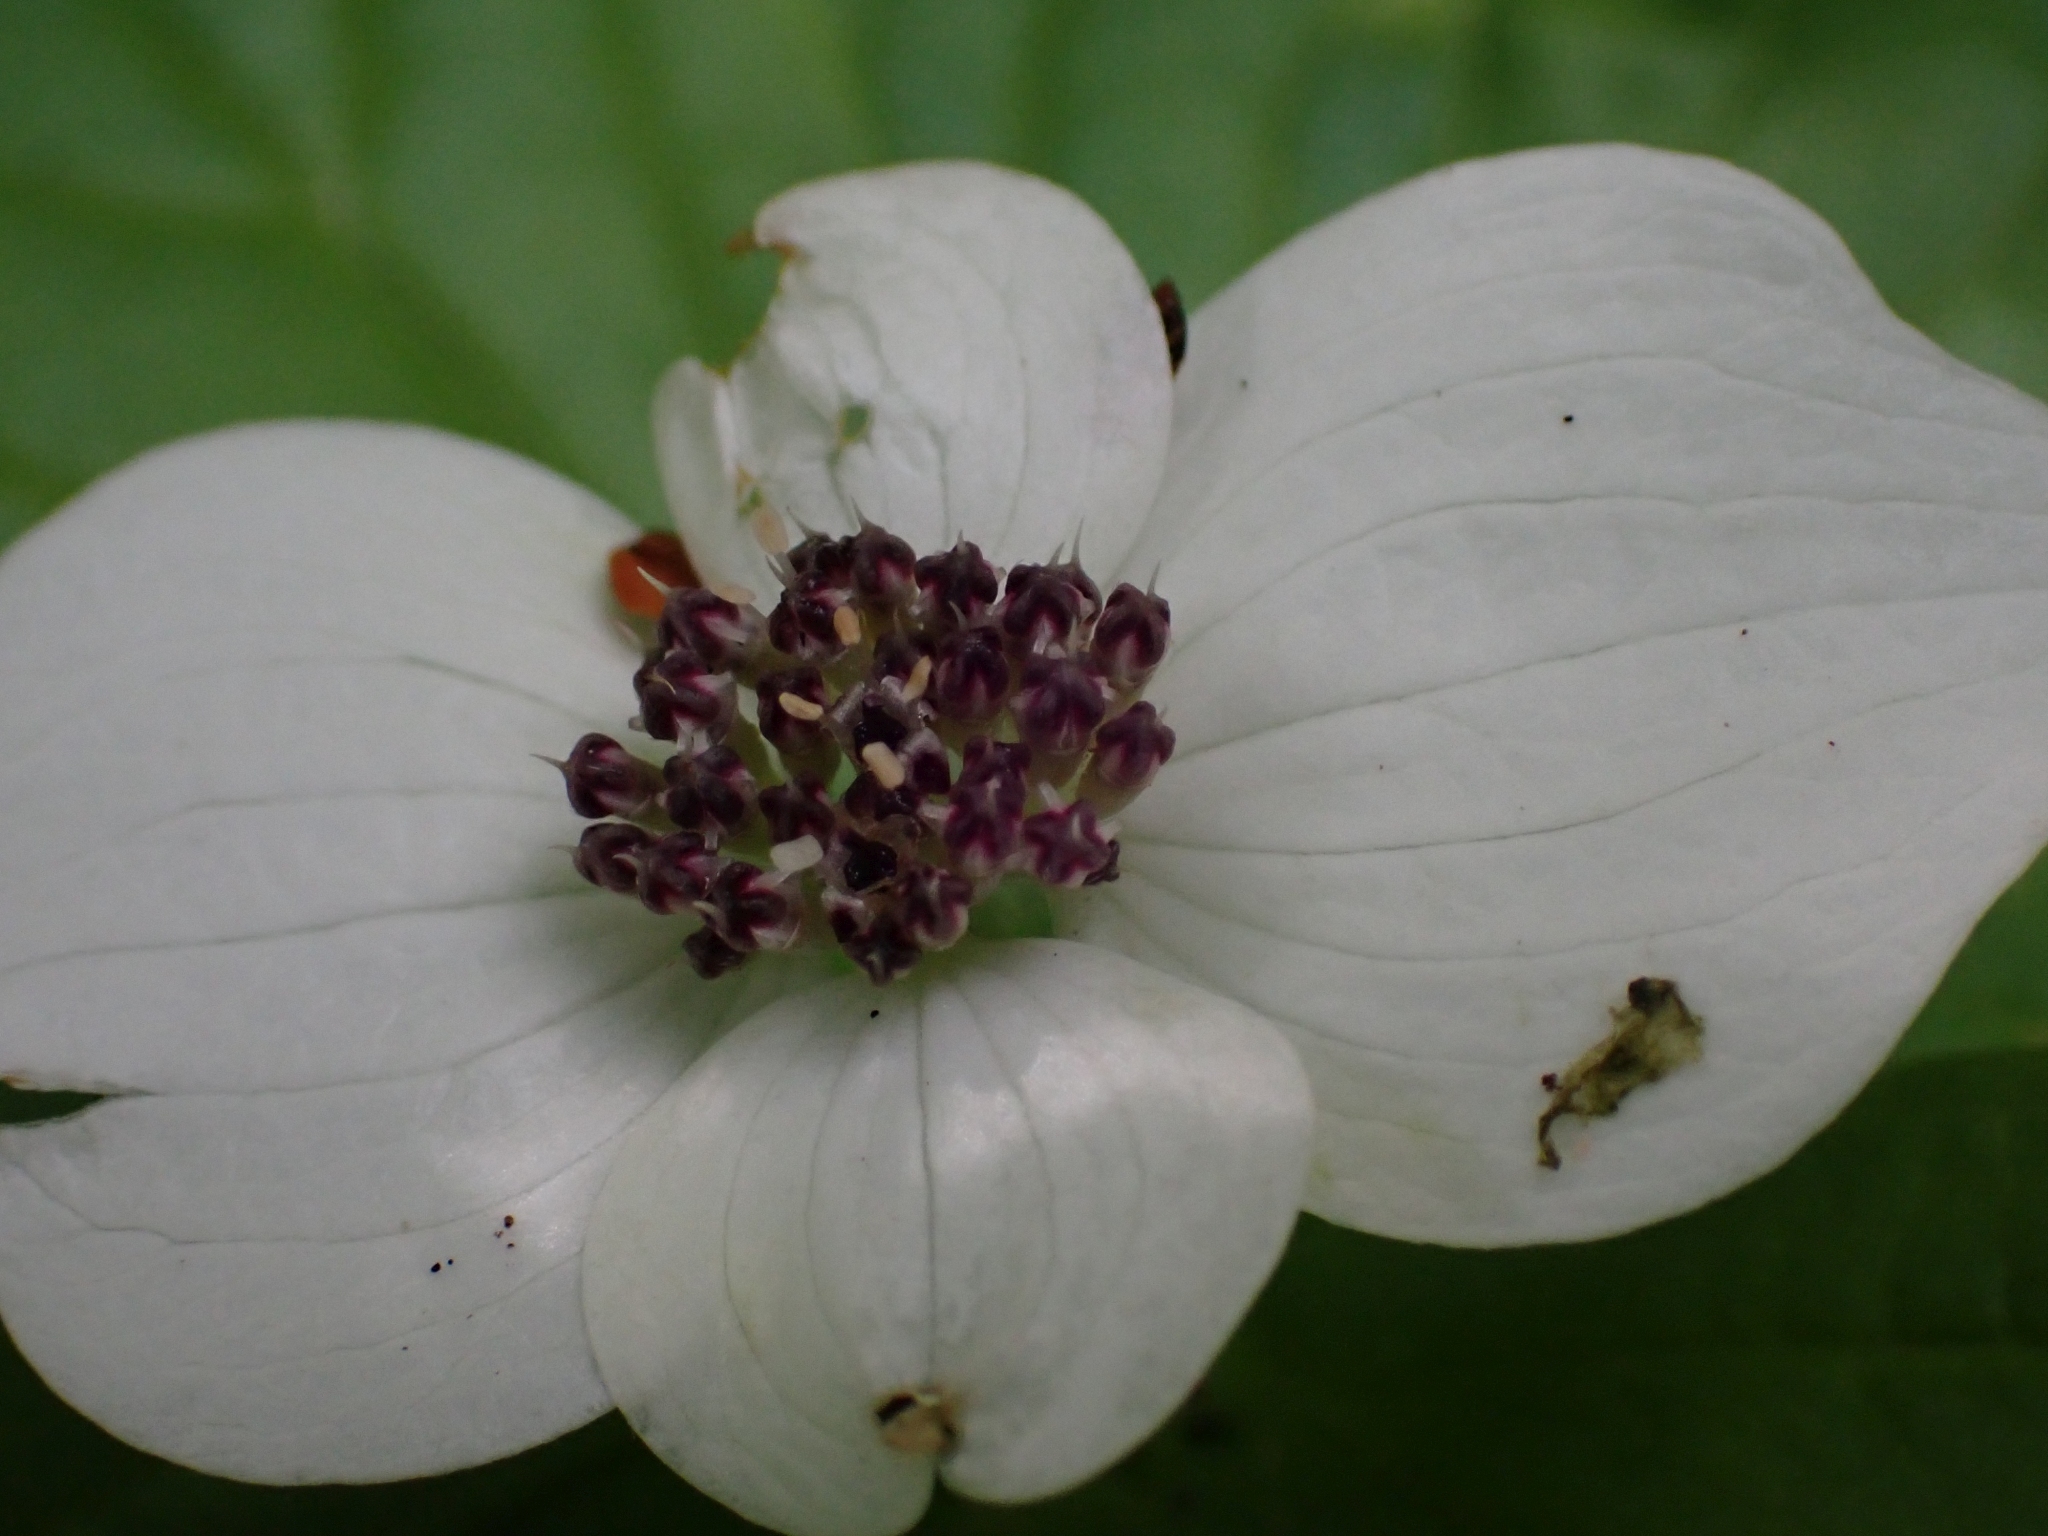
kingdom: Plantae
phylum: Tracheophyta
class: Magnoliopsida
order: Cornales
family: Cornaceae
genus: Cornus
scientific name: Cornus unalaschkensis
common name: Alaska bunchberry
